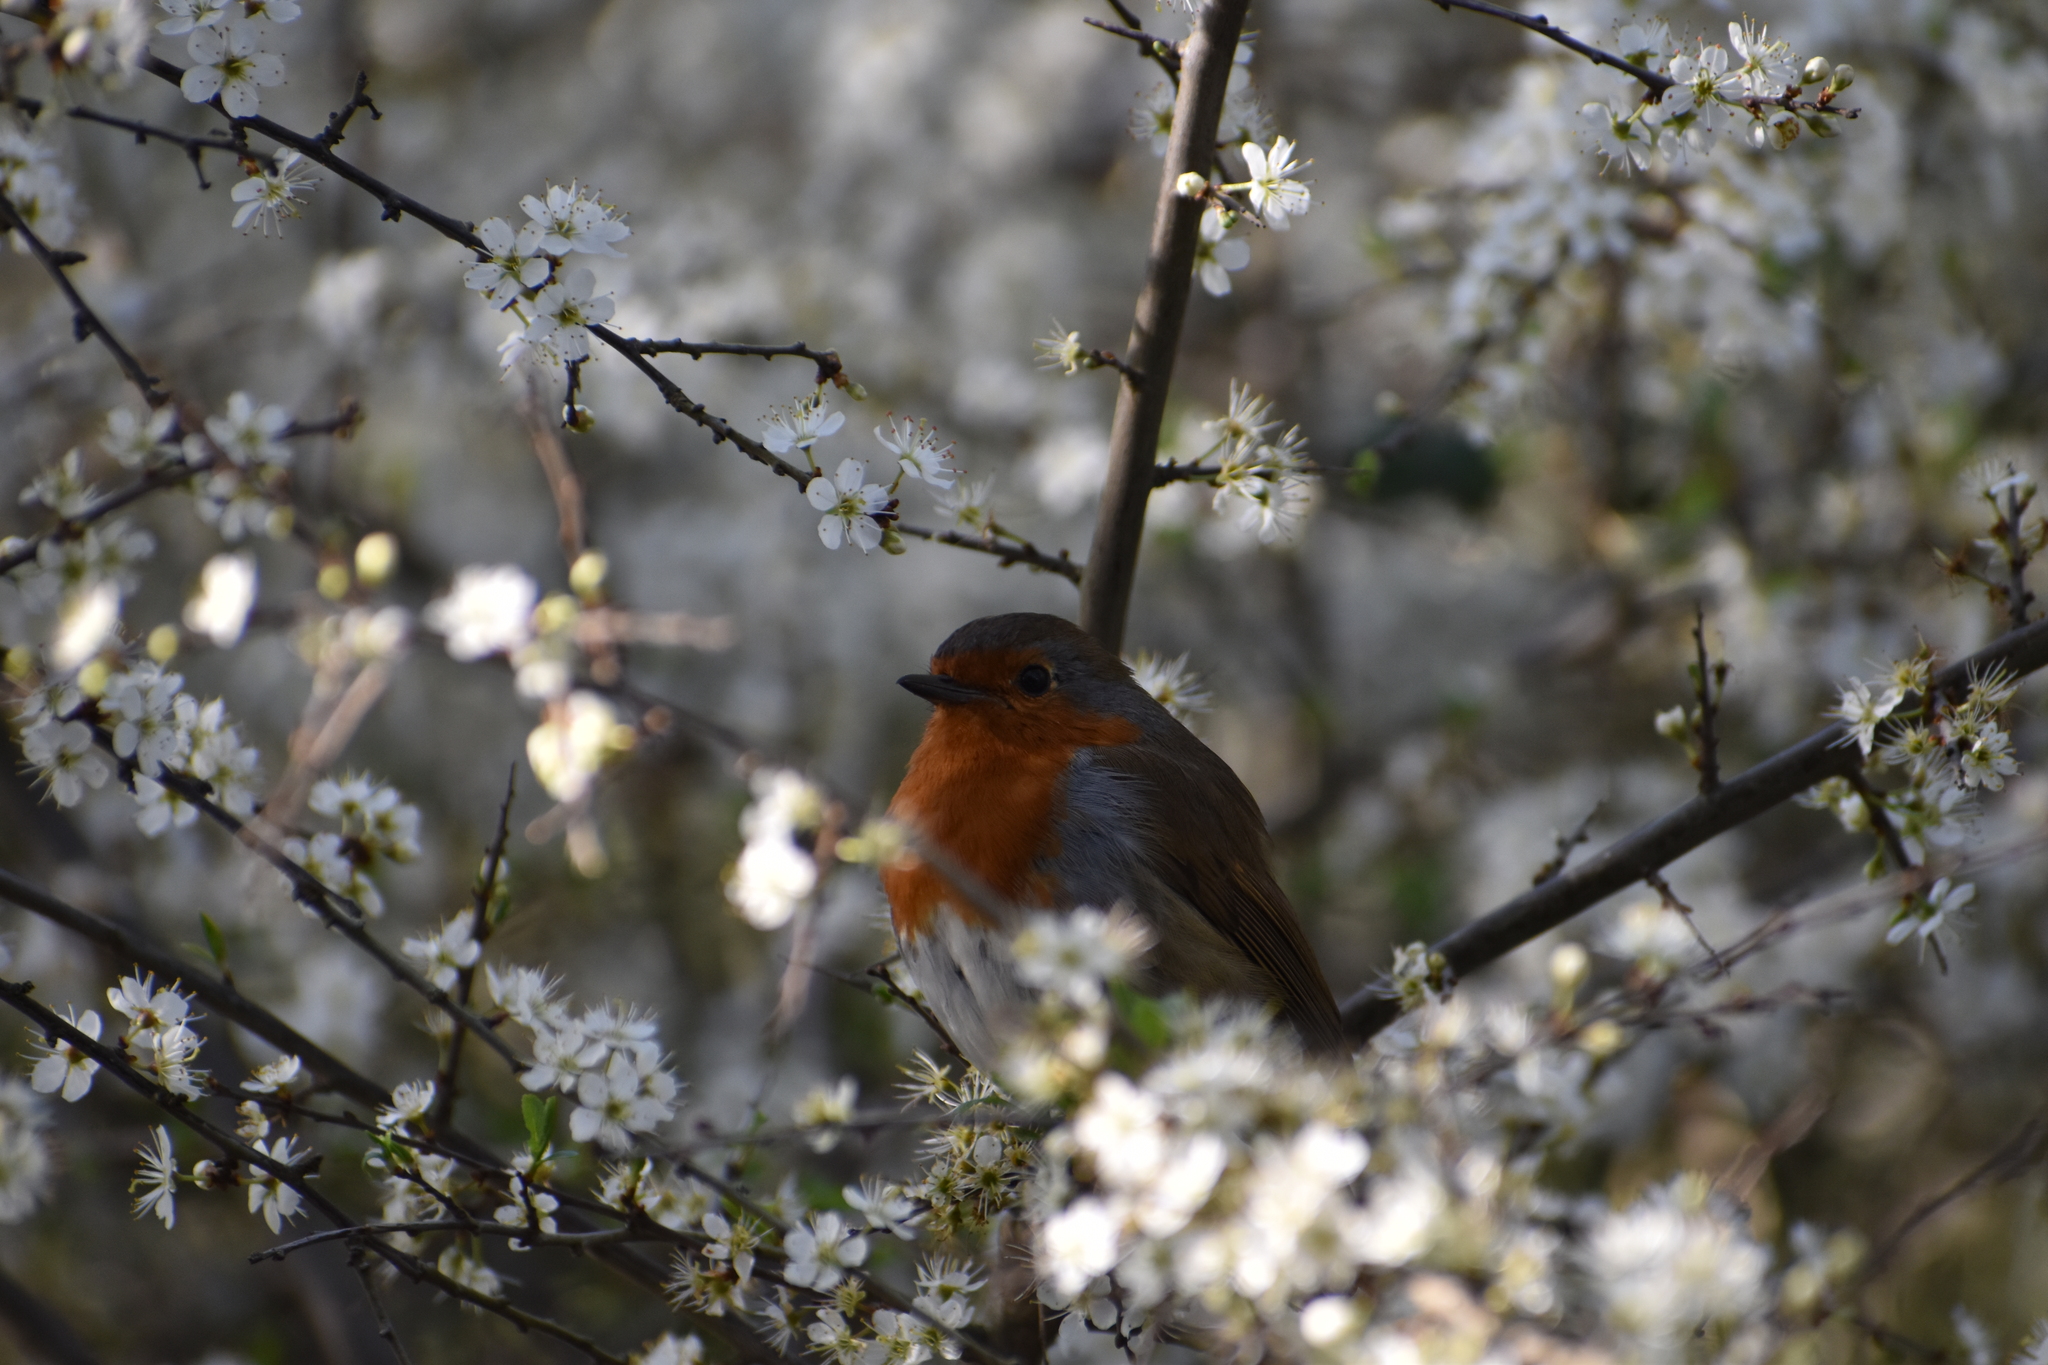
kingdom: Animalia
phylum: Chordata
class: Aves
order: Passeriformes
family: Muscicapidae
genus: Erithacus
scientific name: Erithacus rubecula
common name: European robin
